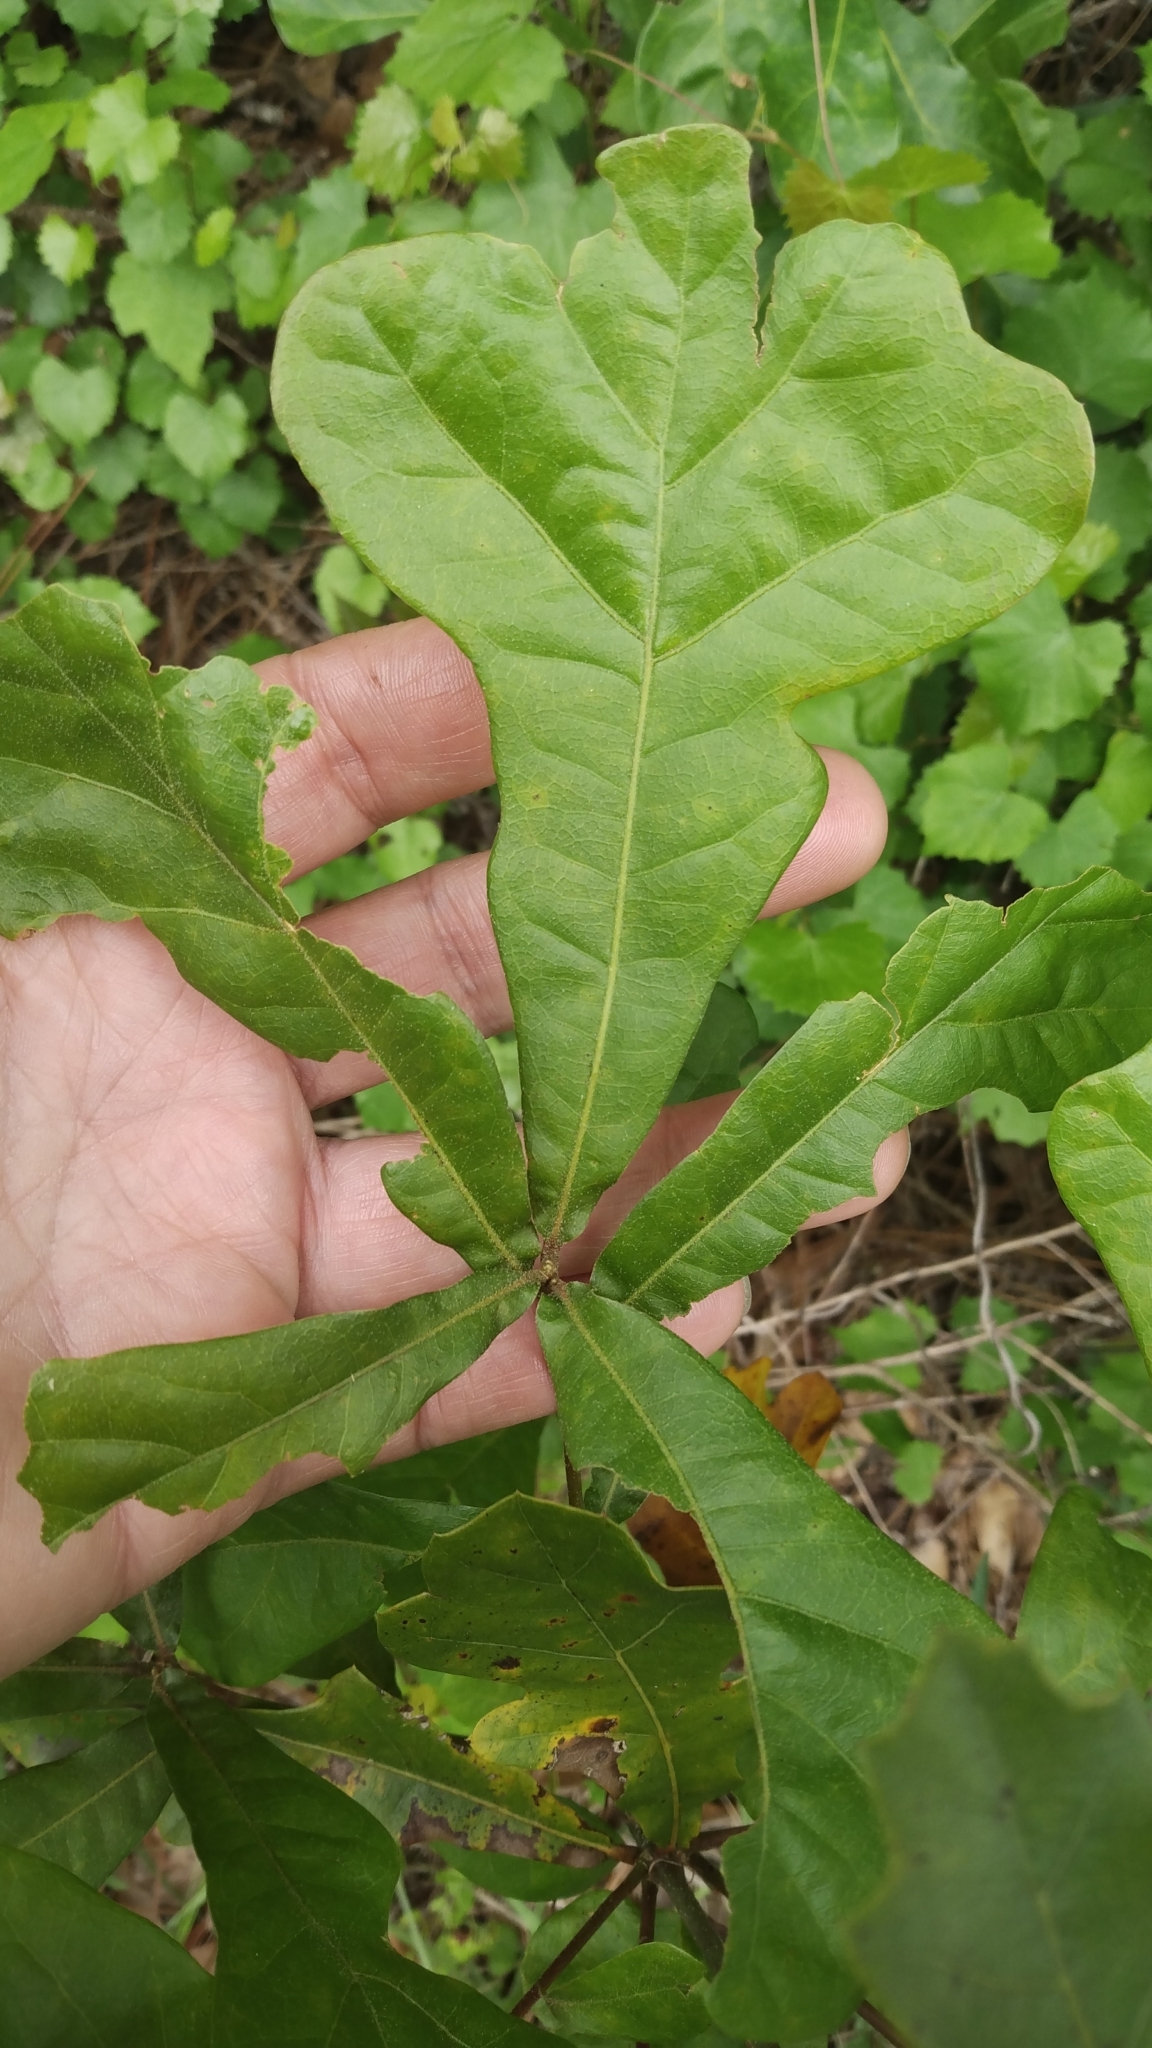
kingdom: Plantae
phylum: Tracheophyta
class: Magnoliopsida
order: Fagales
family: Fagaceae
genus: Quercus
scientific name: Quercus nigra
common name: Water oak
